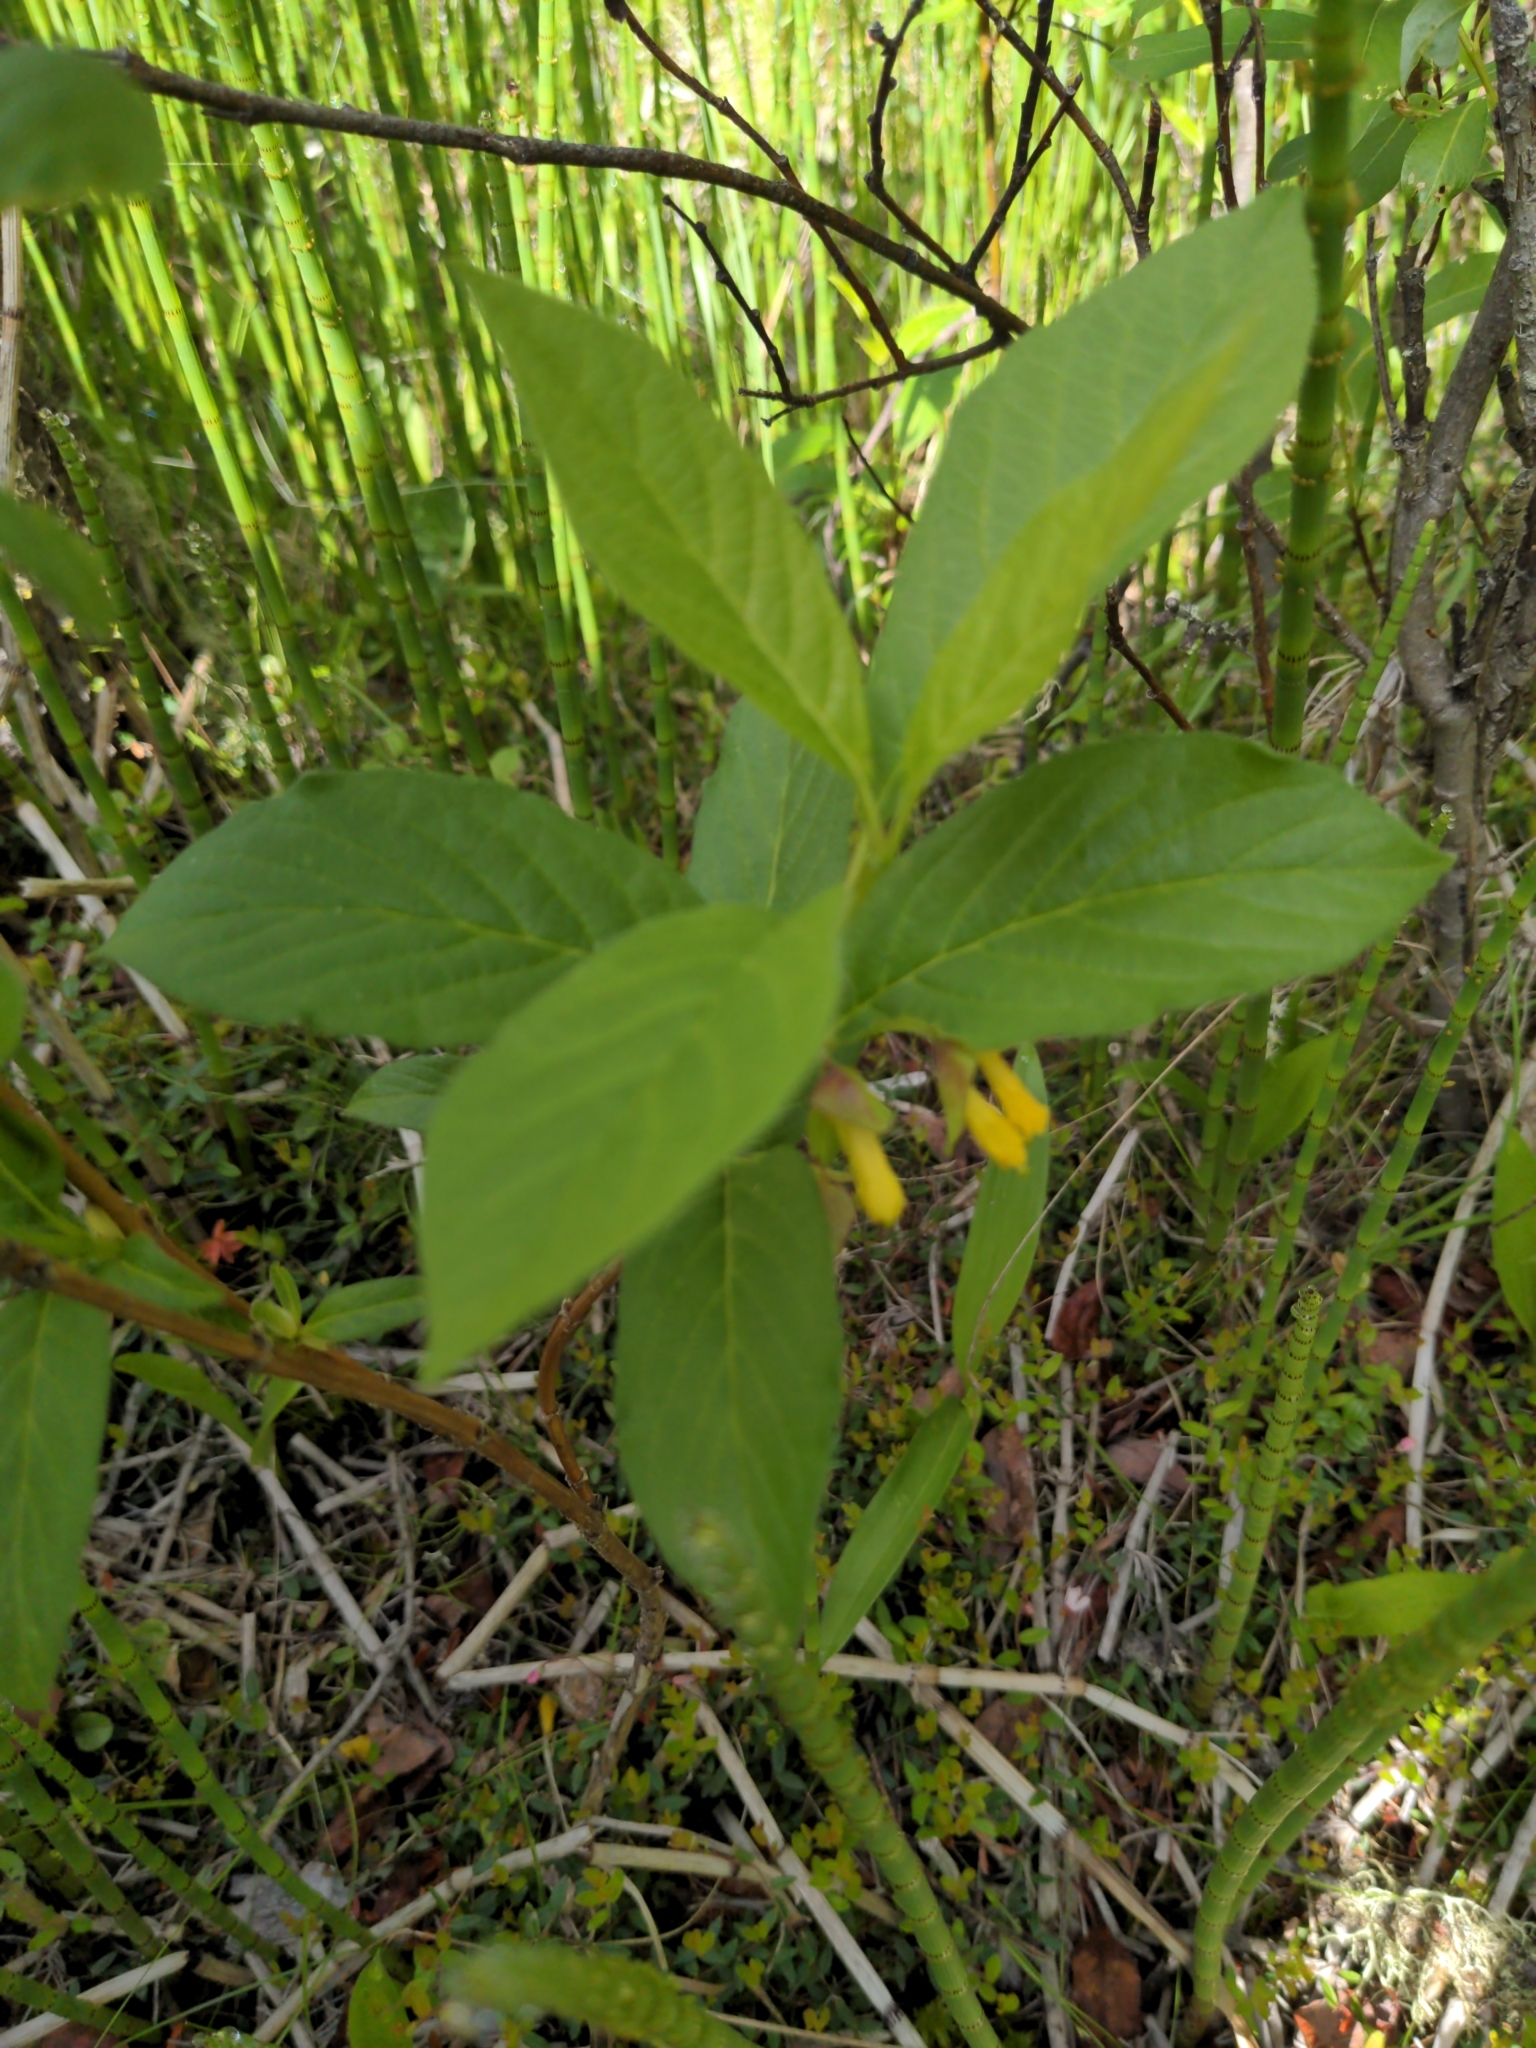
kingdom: Plantae
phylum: Tracheophyta
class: Magnoliopsida
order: Dipsacales
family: Caprifoliaceae
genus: Lonicera
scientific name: Lonicera involucrata
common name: Californian honeysuckle
